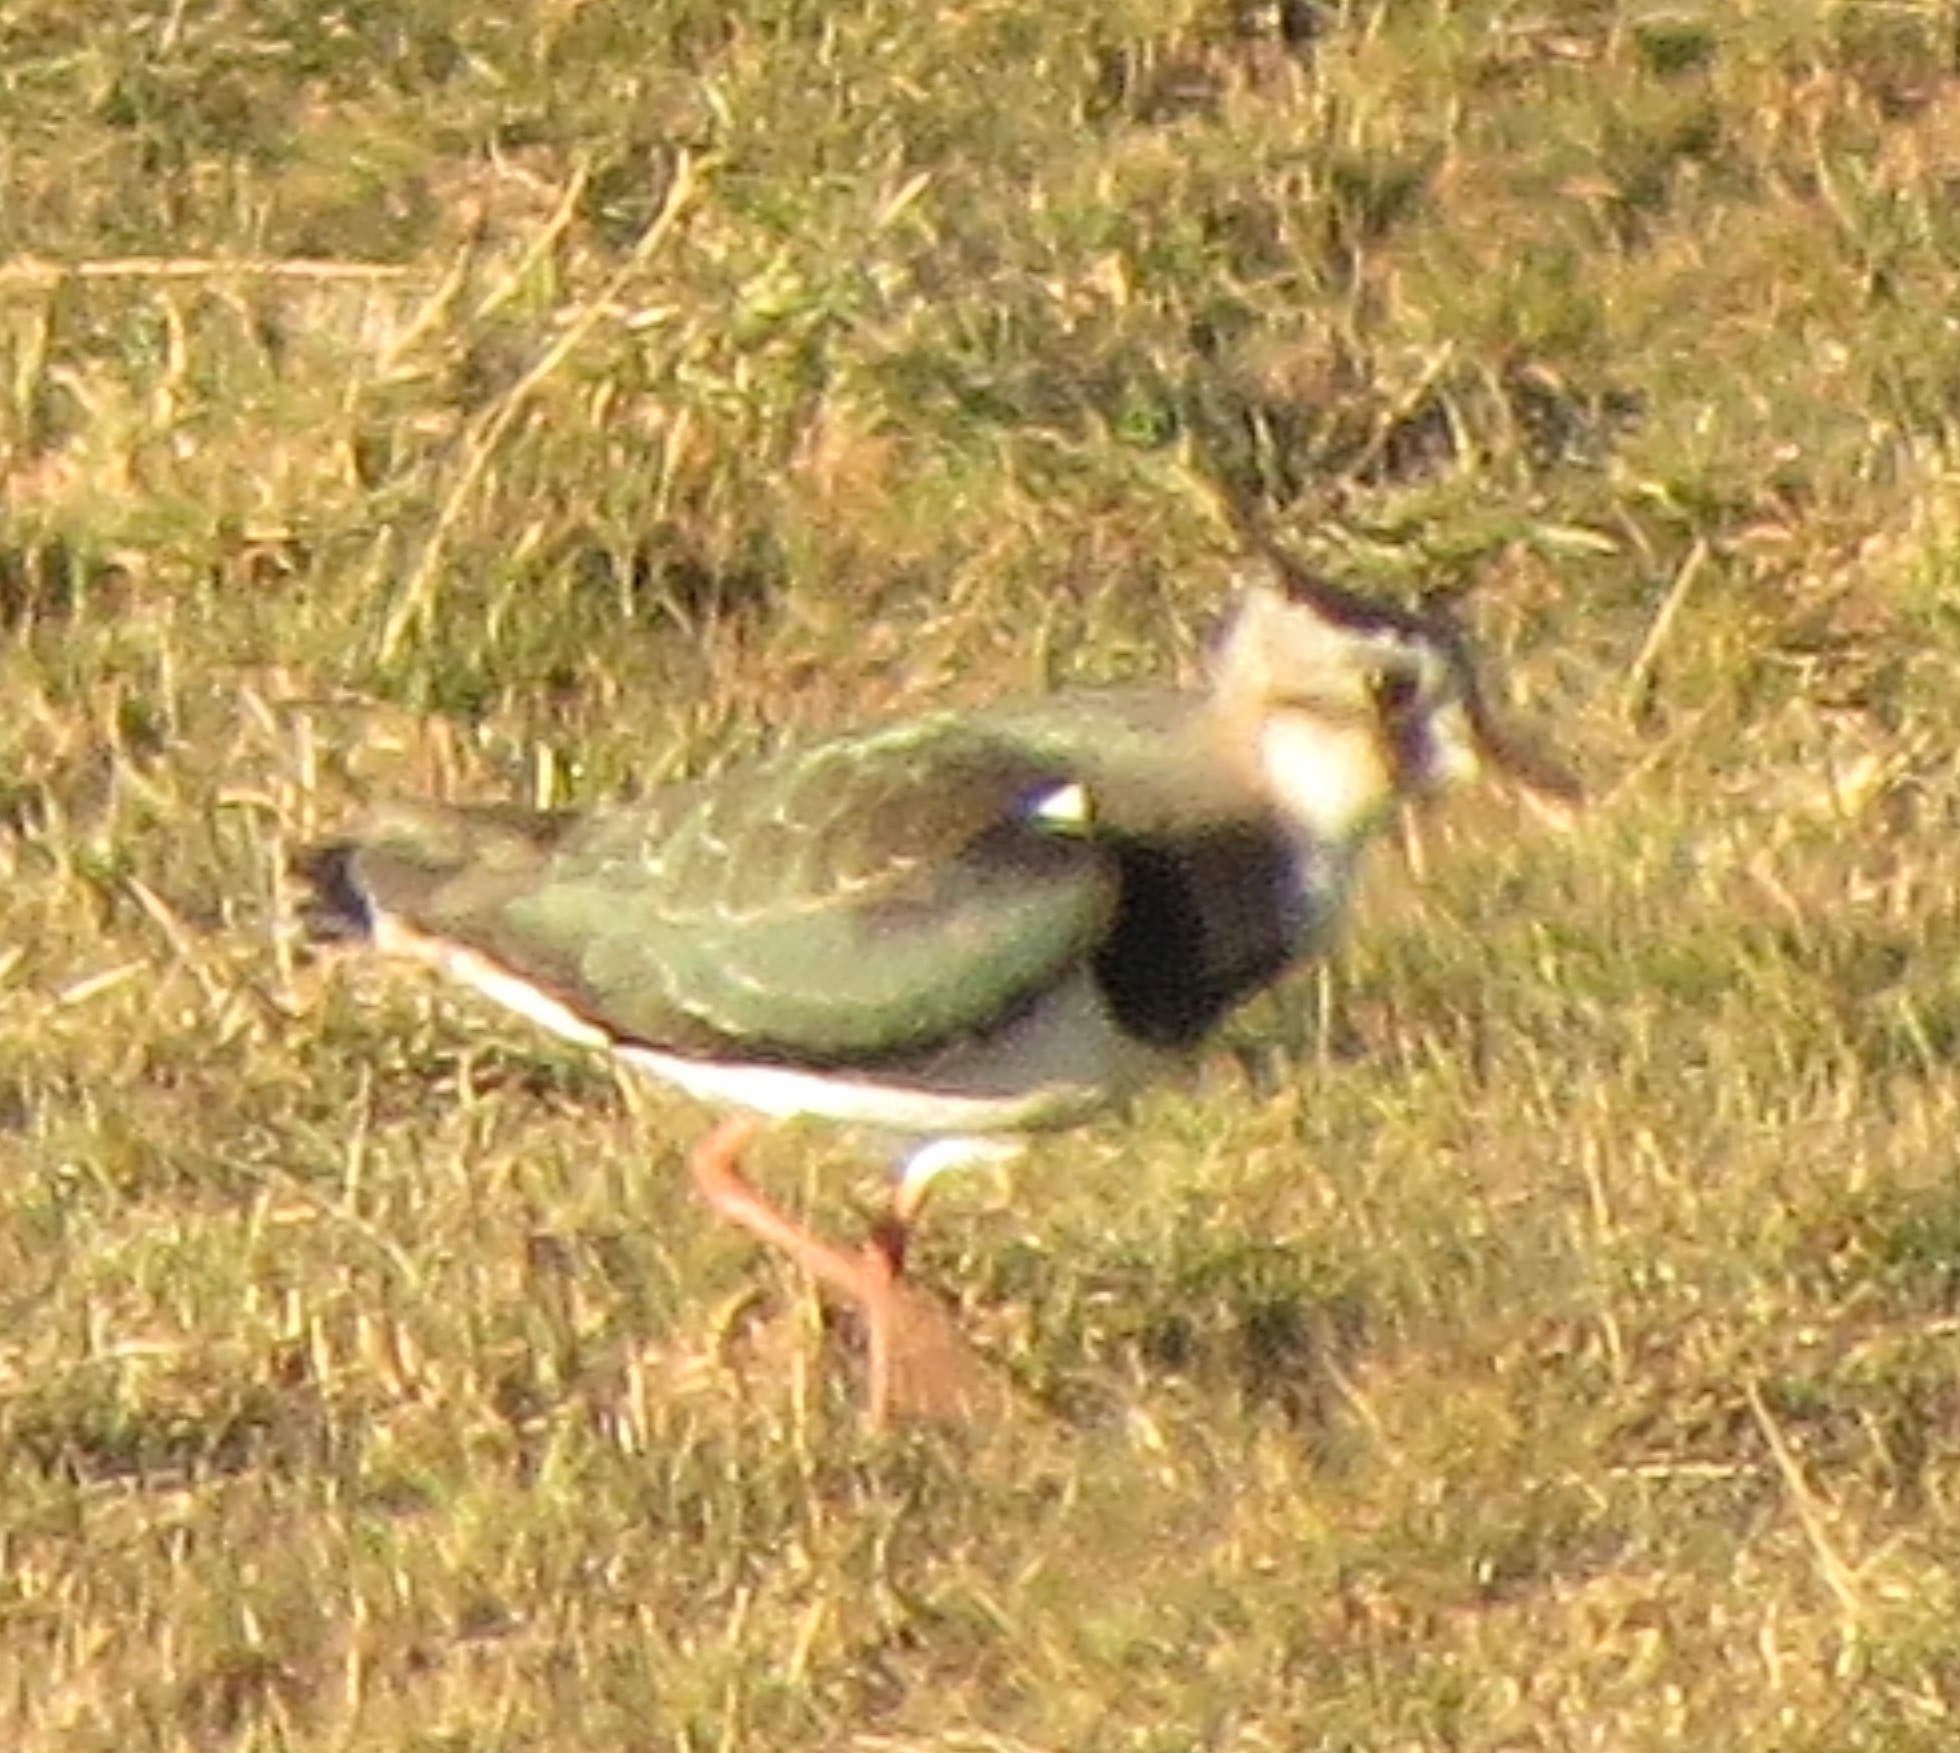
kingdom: Animalia
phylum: Chordata
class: Aves
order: Charadriiformes
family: Charadriidae
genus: Vanellus
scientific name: Vanellus vanellus
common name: Northern lapwing
